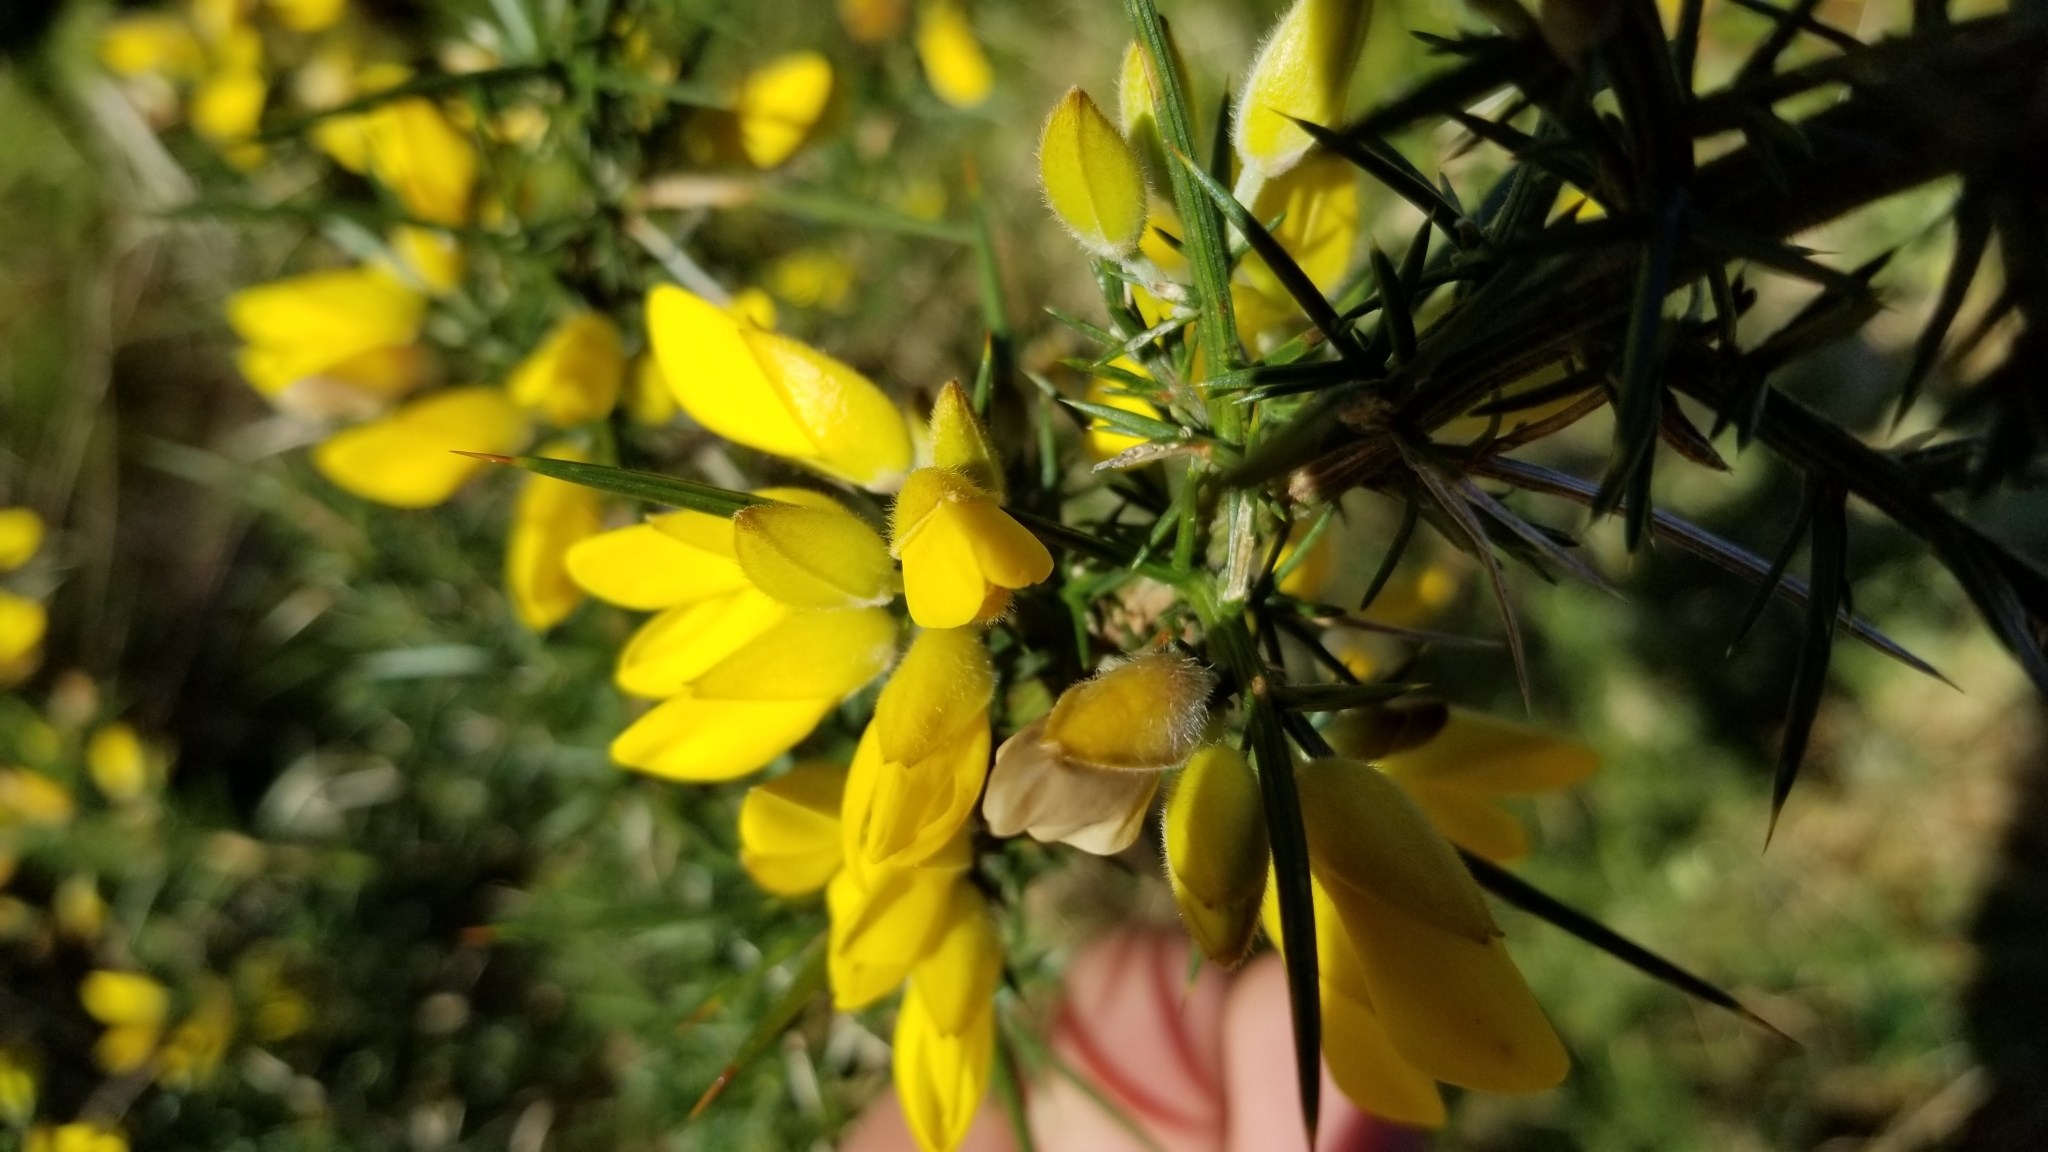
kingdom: Plantae
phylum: Tracheophyta
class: Magnoliopsida
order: Fabales
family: Fabaceae
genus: Ulex
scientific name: Ulex europaeus
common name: Common gorse
